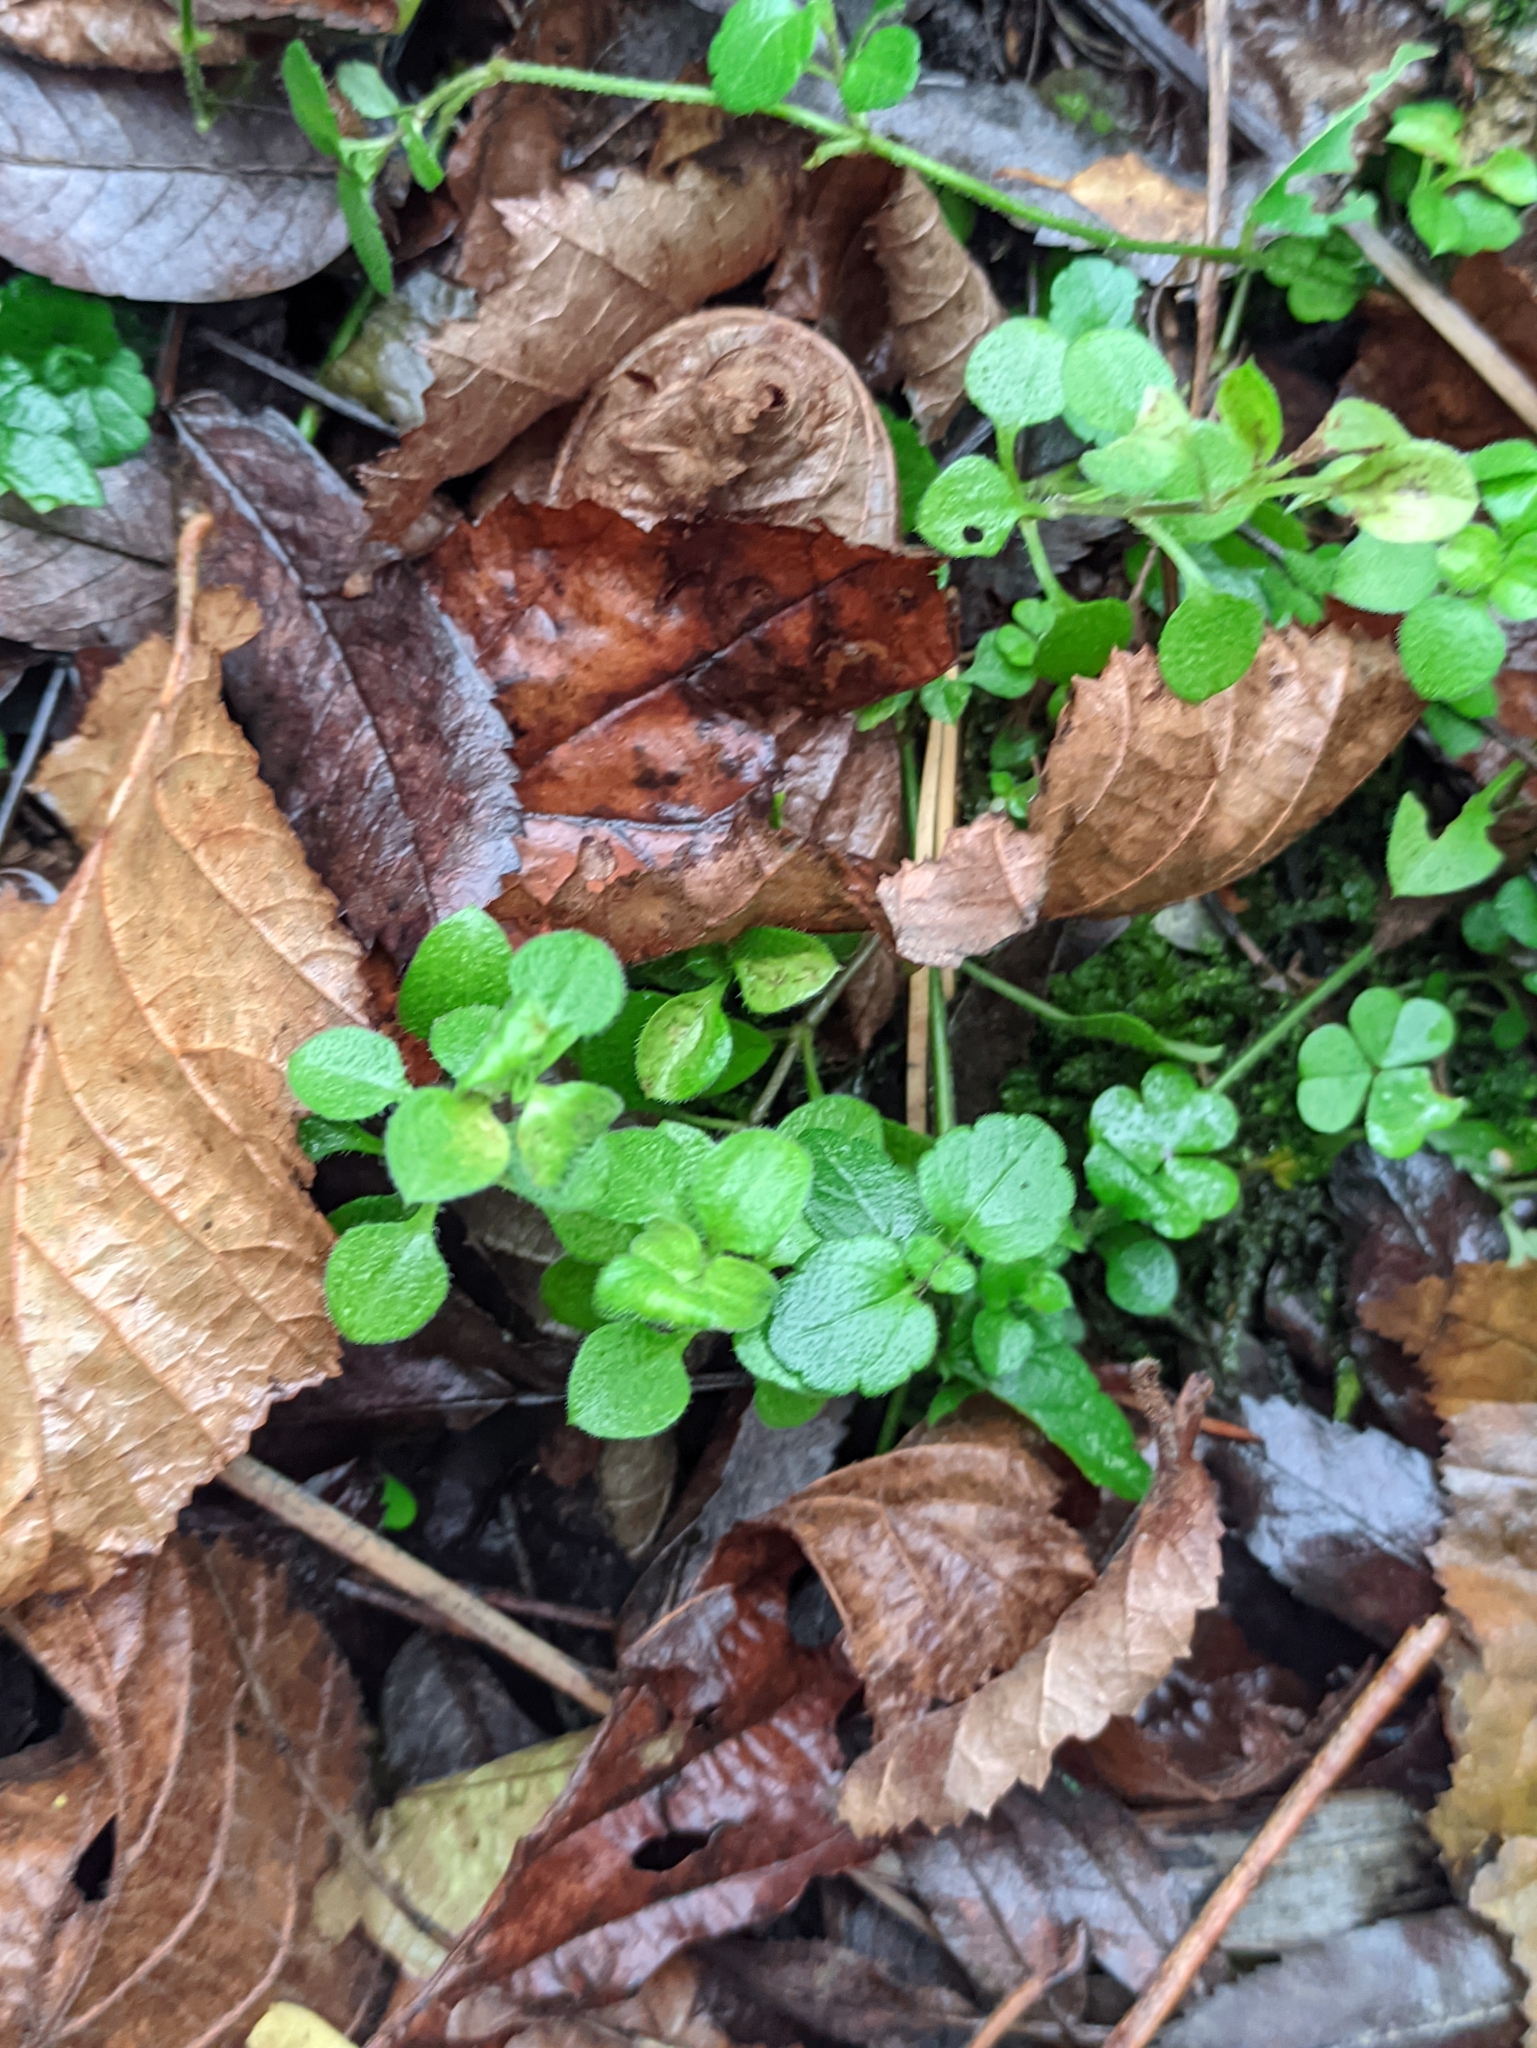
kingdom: Plantae
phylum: Tracheophyta
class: Magnoliopsida
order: Caryophyllales
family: Caryophyllaceae
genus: Moehringia
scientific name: Moehringia trinervia
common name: Three-nerved sandwort
